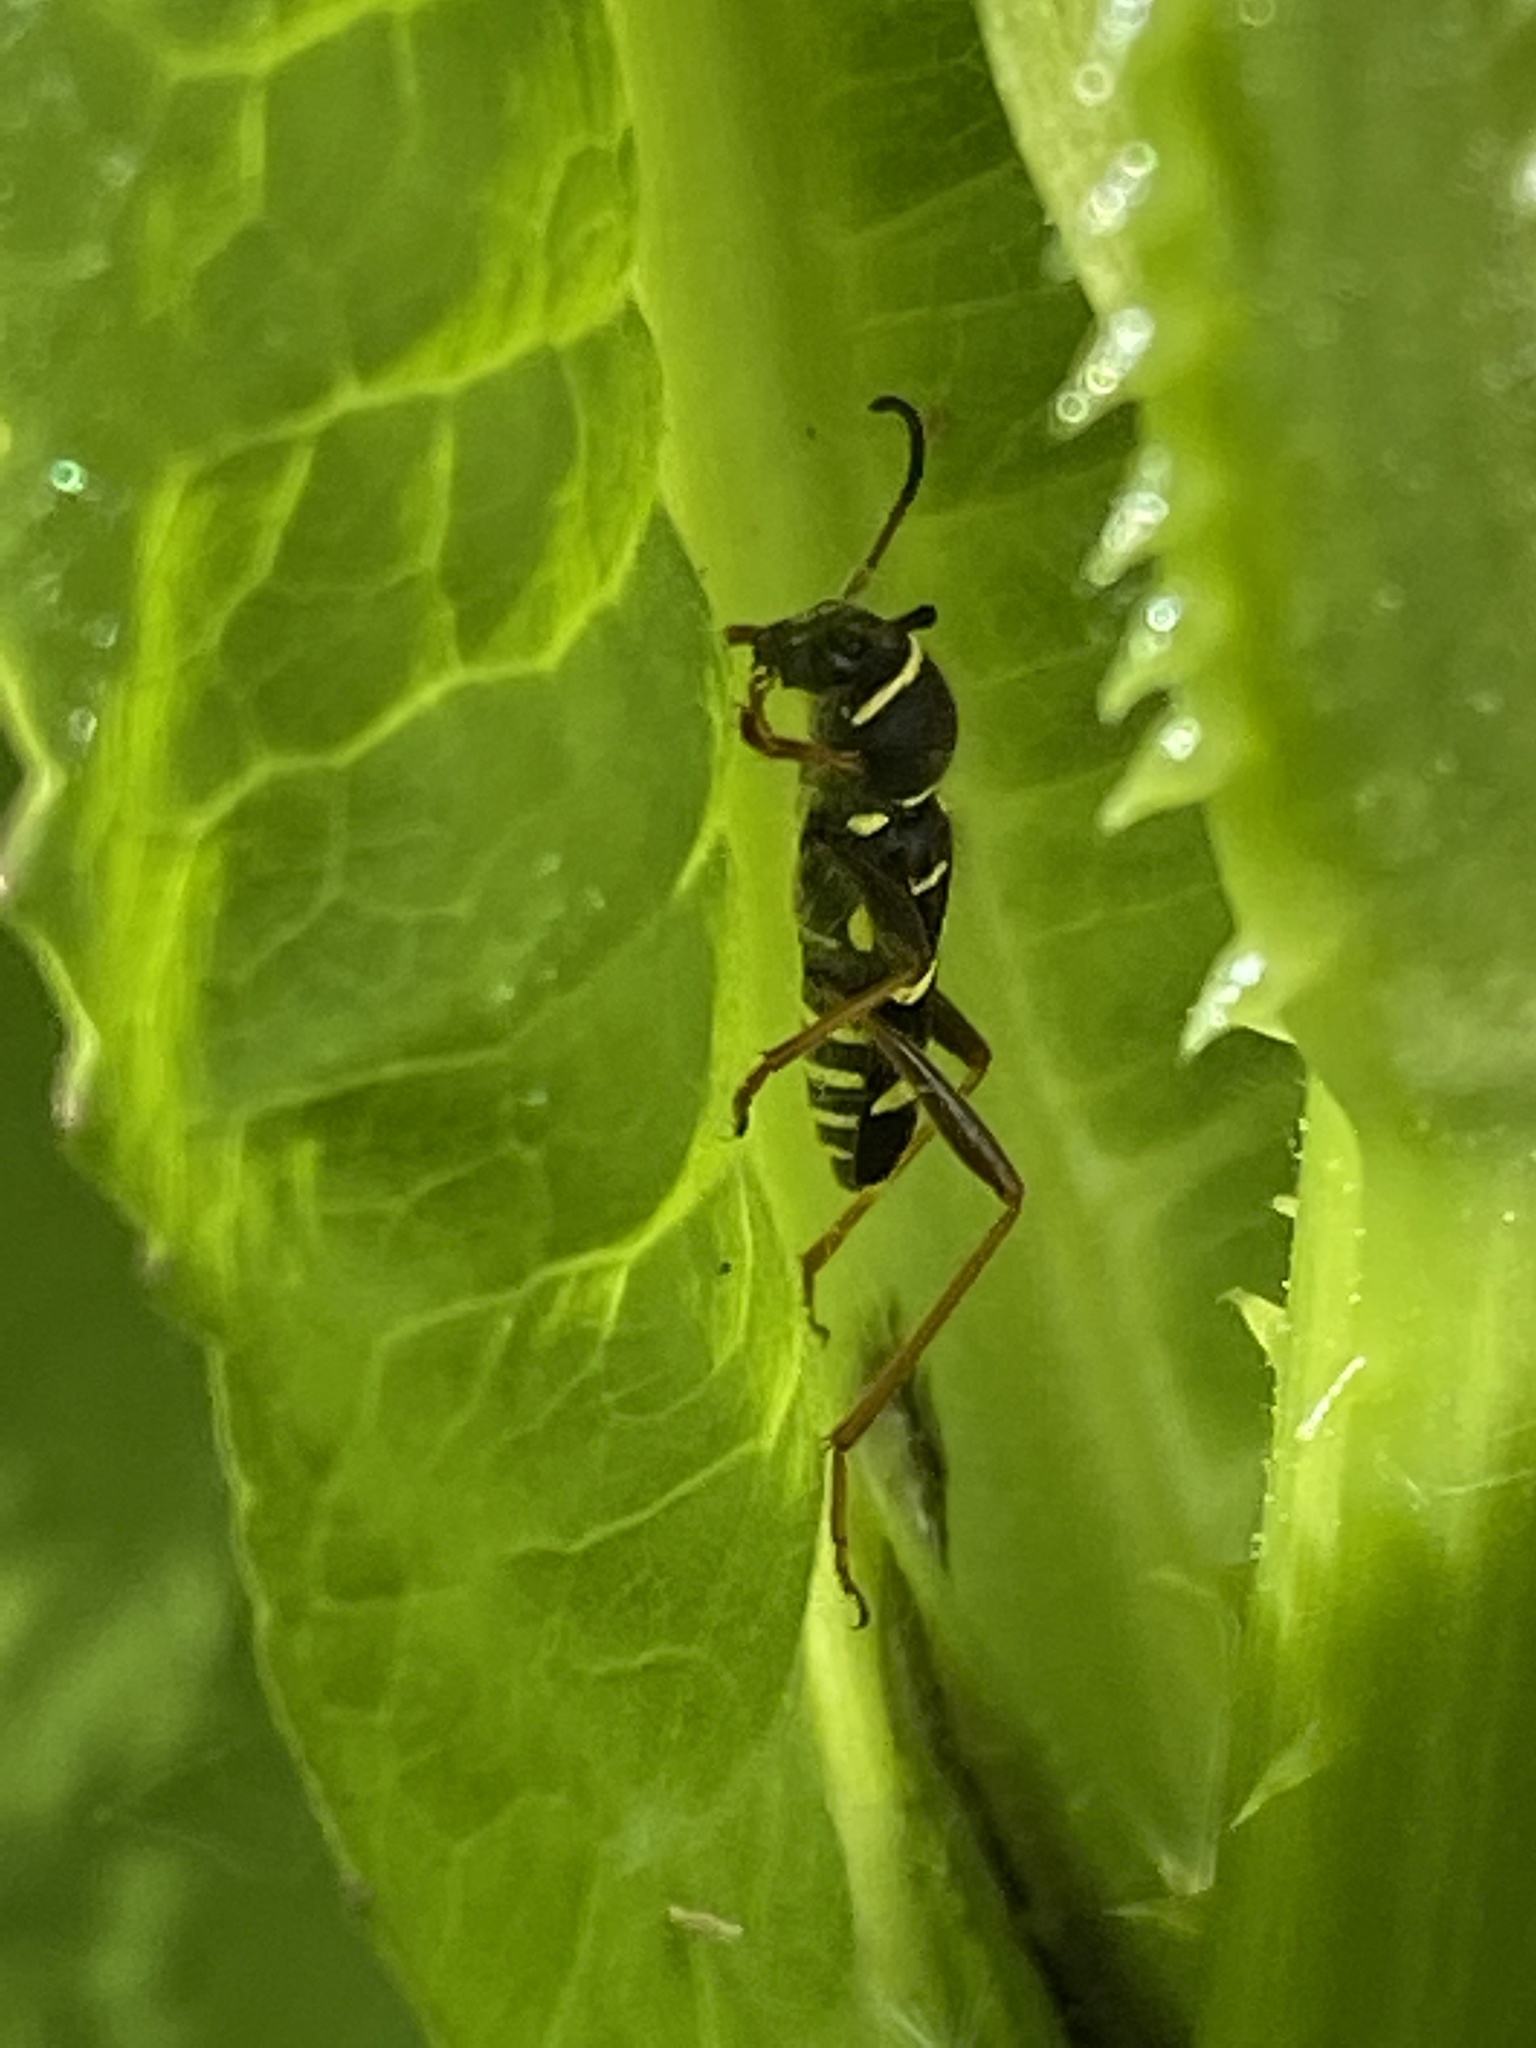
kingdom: Animalia
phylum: Arthropoda
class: Insecta
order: Coleoptera
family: Cerambycidae
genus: Clytus
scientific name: Clytus arietis
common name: Wasp beetle
